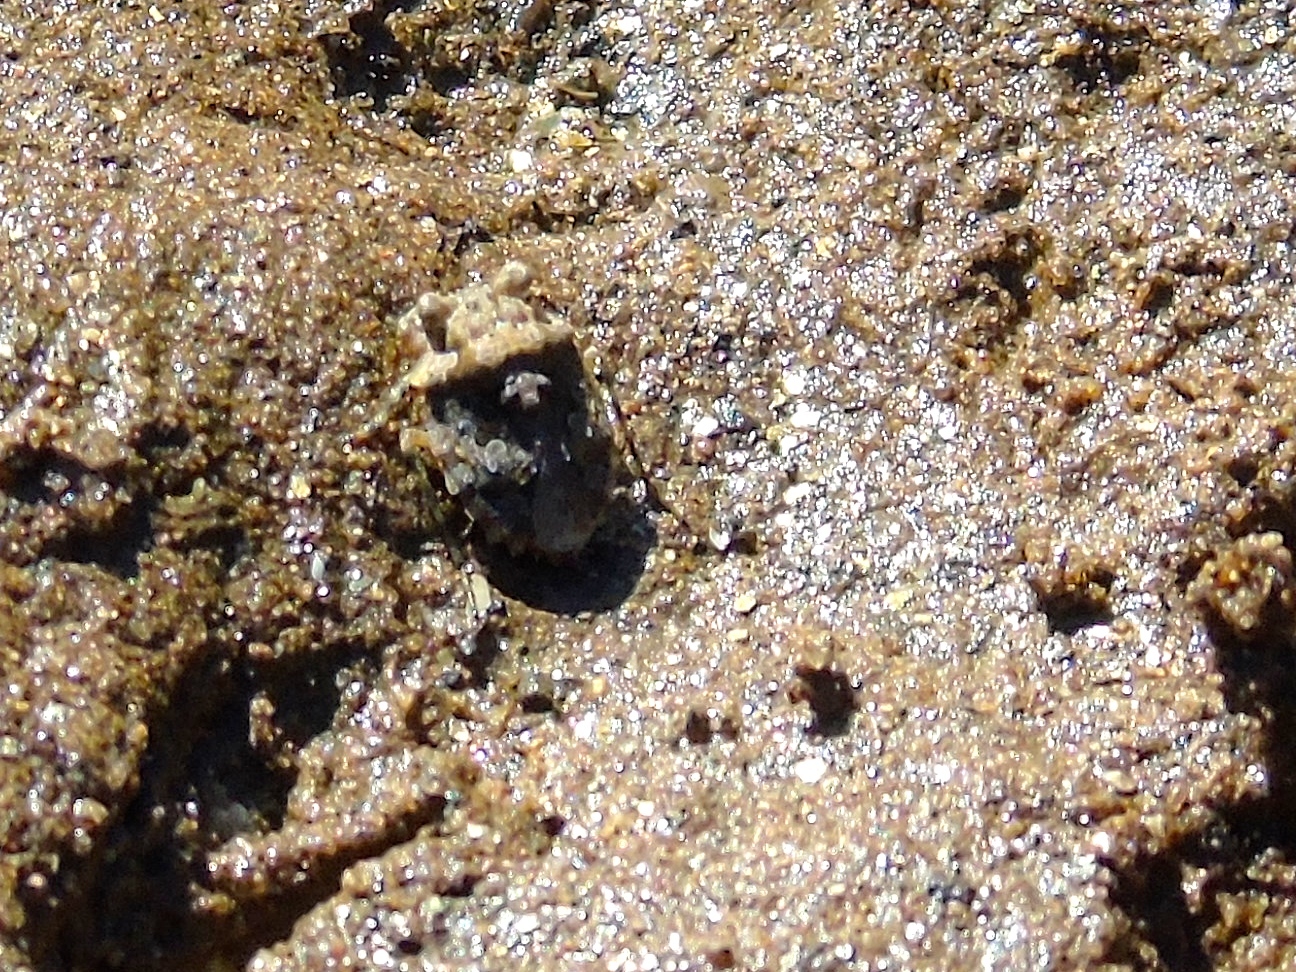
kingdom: Animalia
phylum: Arthropoda
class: Insecta
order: Hemiptera
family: Gelastocoridae
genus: Gelastocoris
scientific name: Gelastocoris
